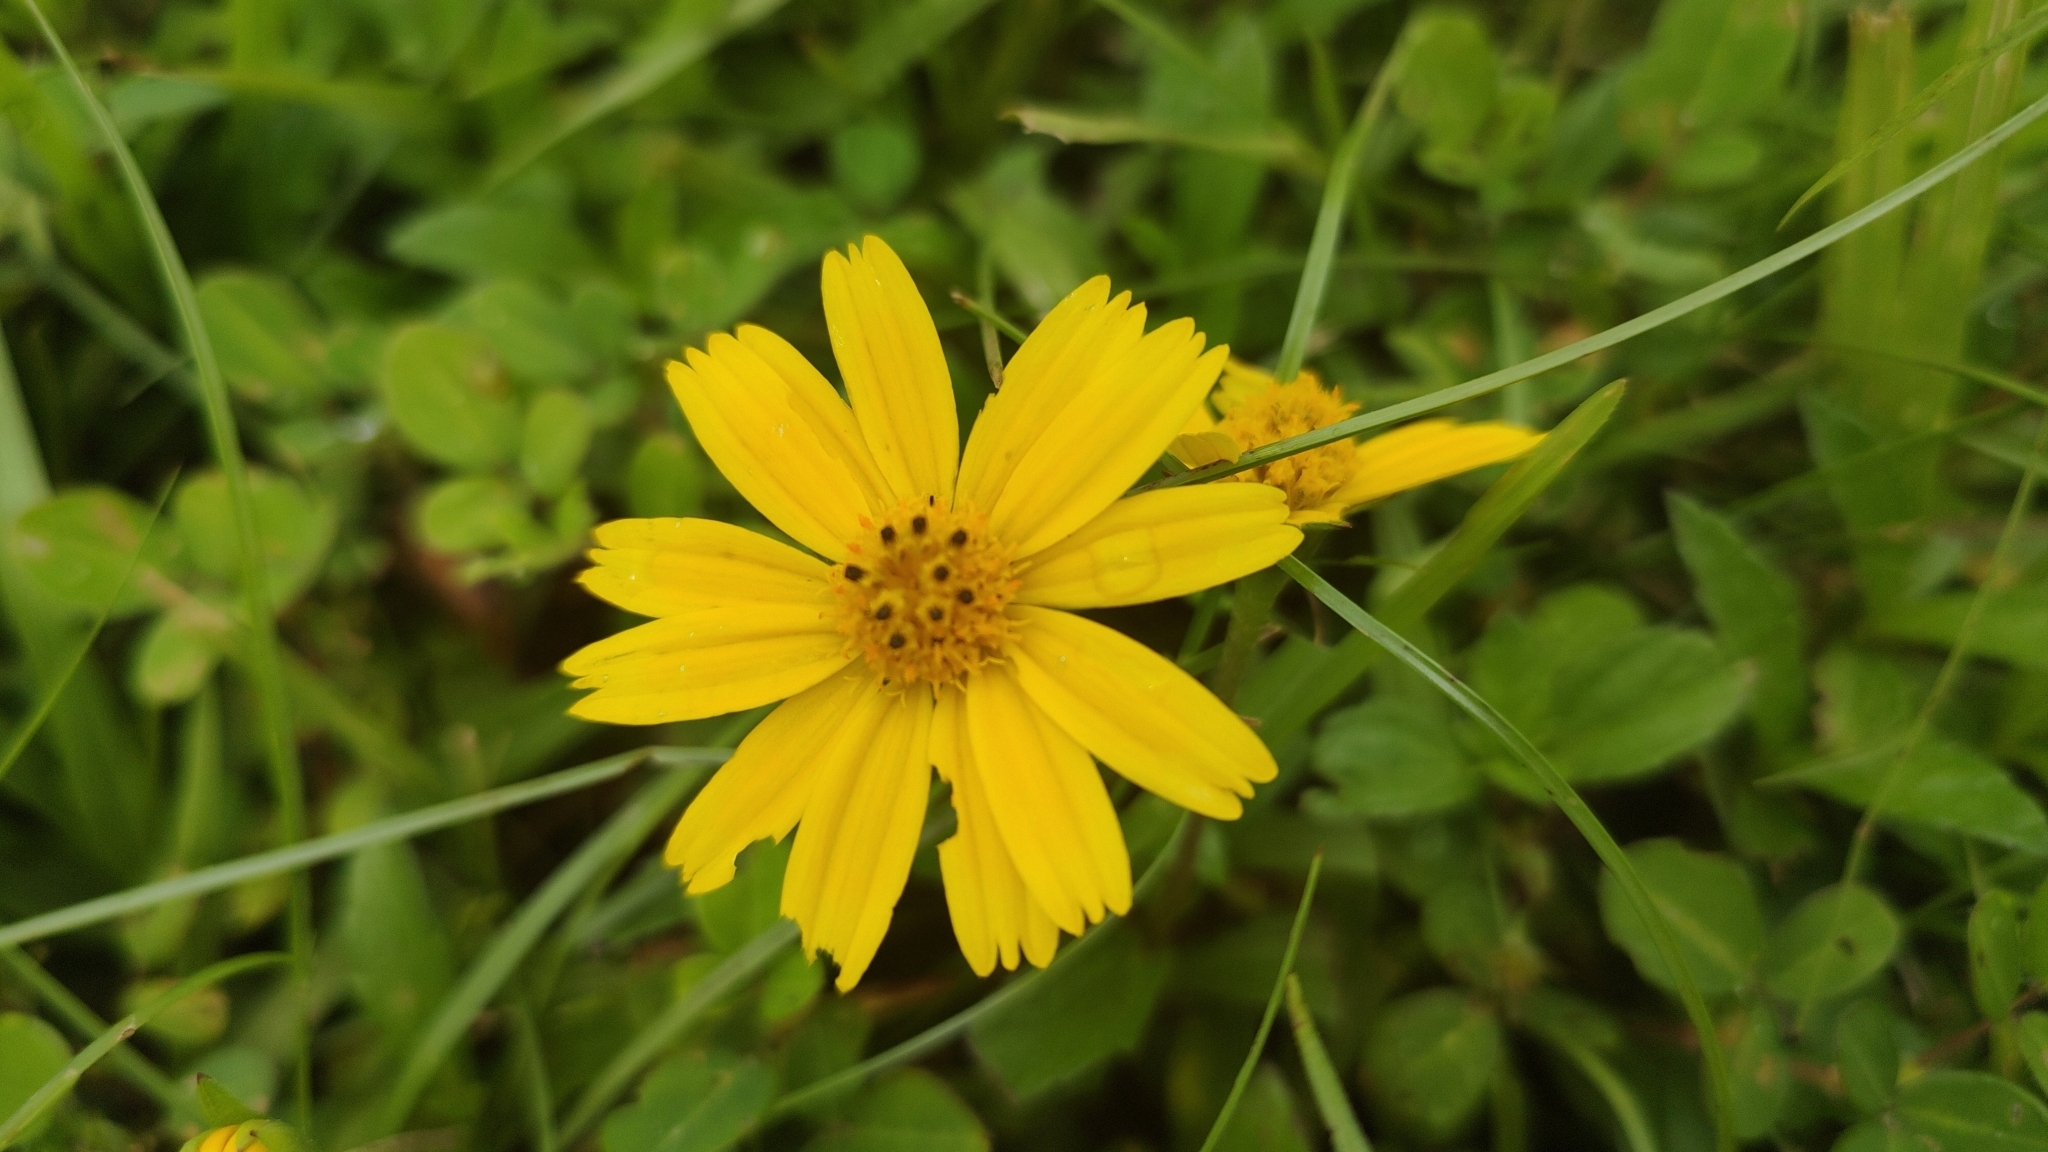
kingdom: Plantae
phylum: Tracheophyta
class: Magnoliopsida
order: Asterales
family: Asteraceae
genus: Sphagneticola
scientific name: Sphagneticola trilobata
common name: Bay biscayne creeping-oxeye
